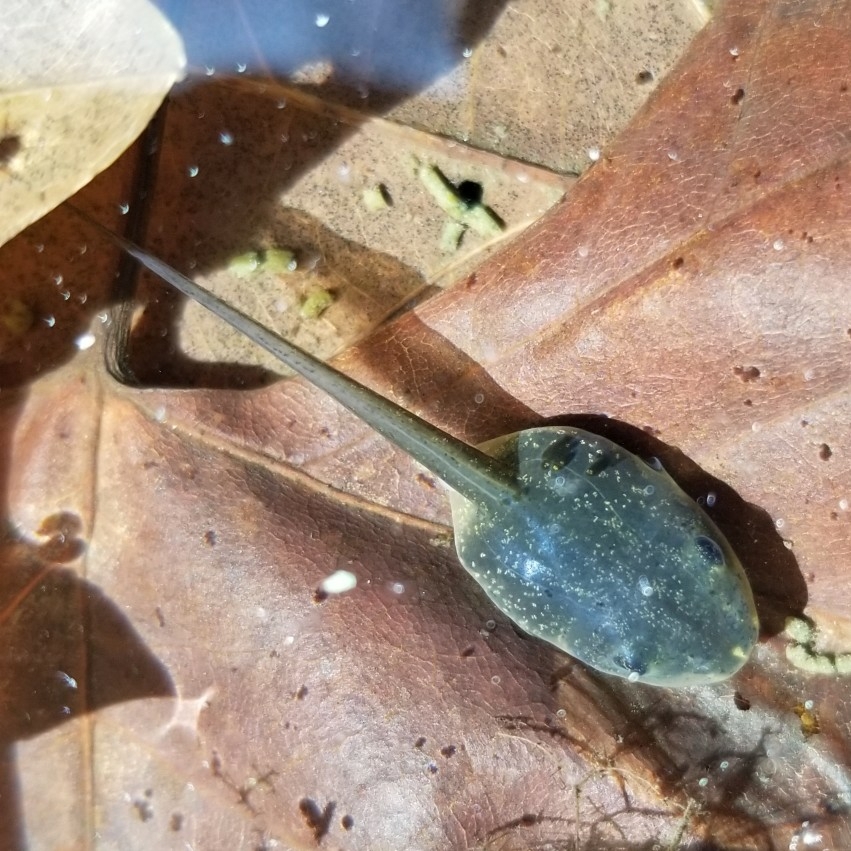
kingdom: Animalia
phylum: Chordata
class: Amphibia
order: Anura
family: Ranidae
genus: Lithobates
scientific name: Lithobates sylvaticus
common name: Wood frog
